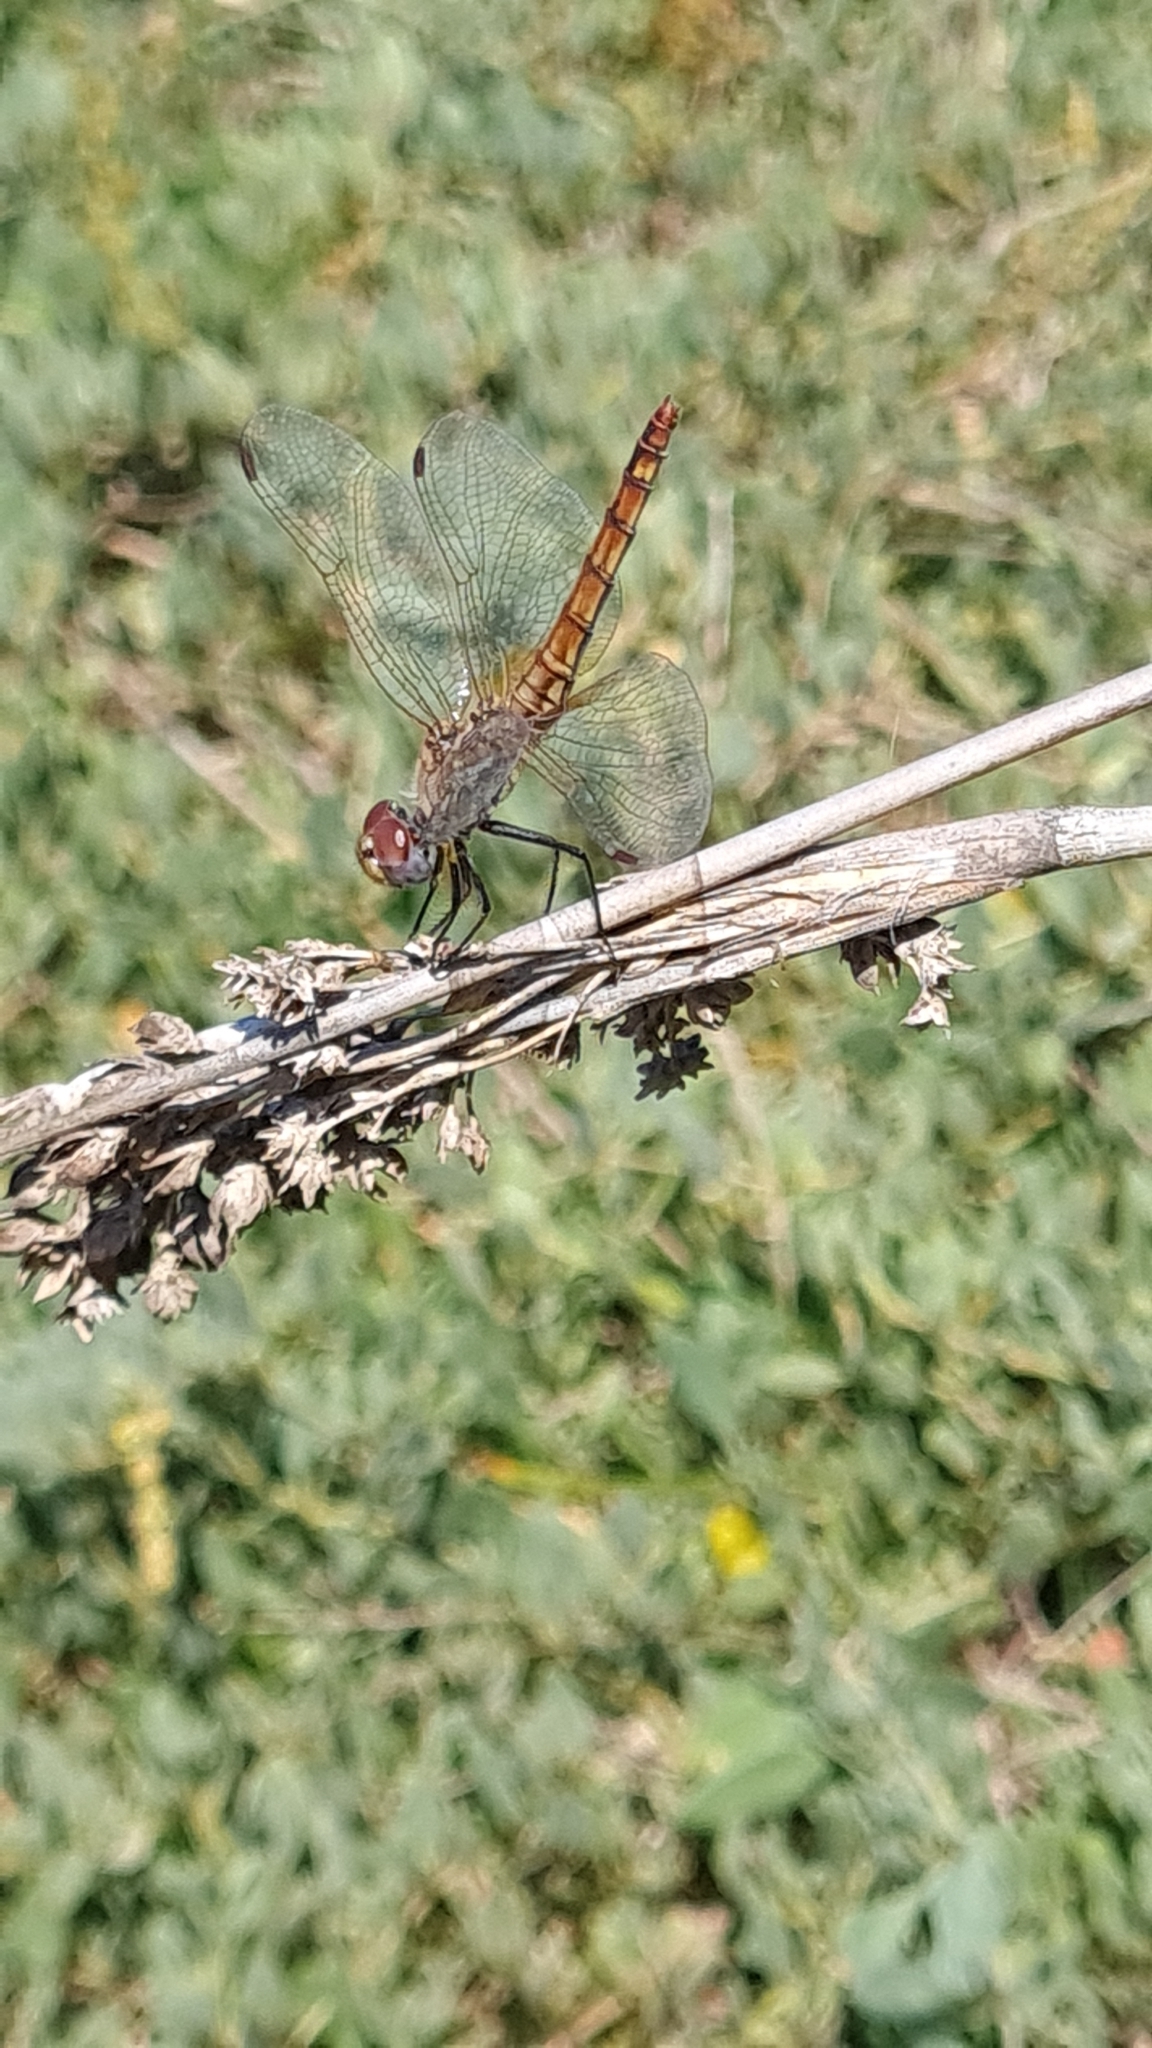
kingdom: Animalia
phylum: Arthropoda
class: Insecta
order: Odonata
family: Libellulidae
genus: Trithemis
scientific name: Trithemis annulata
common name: Violet dropwing
